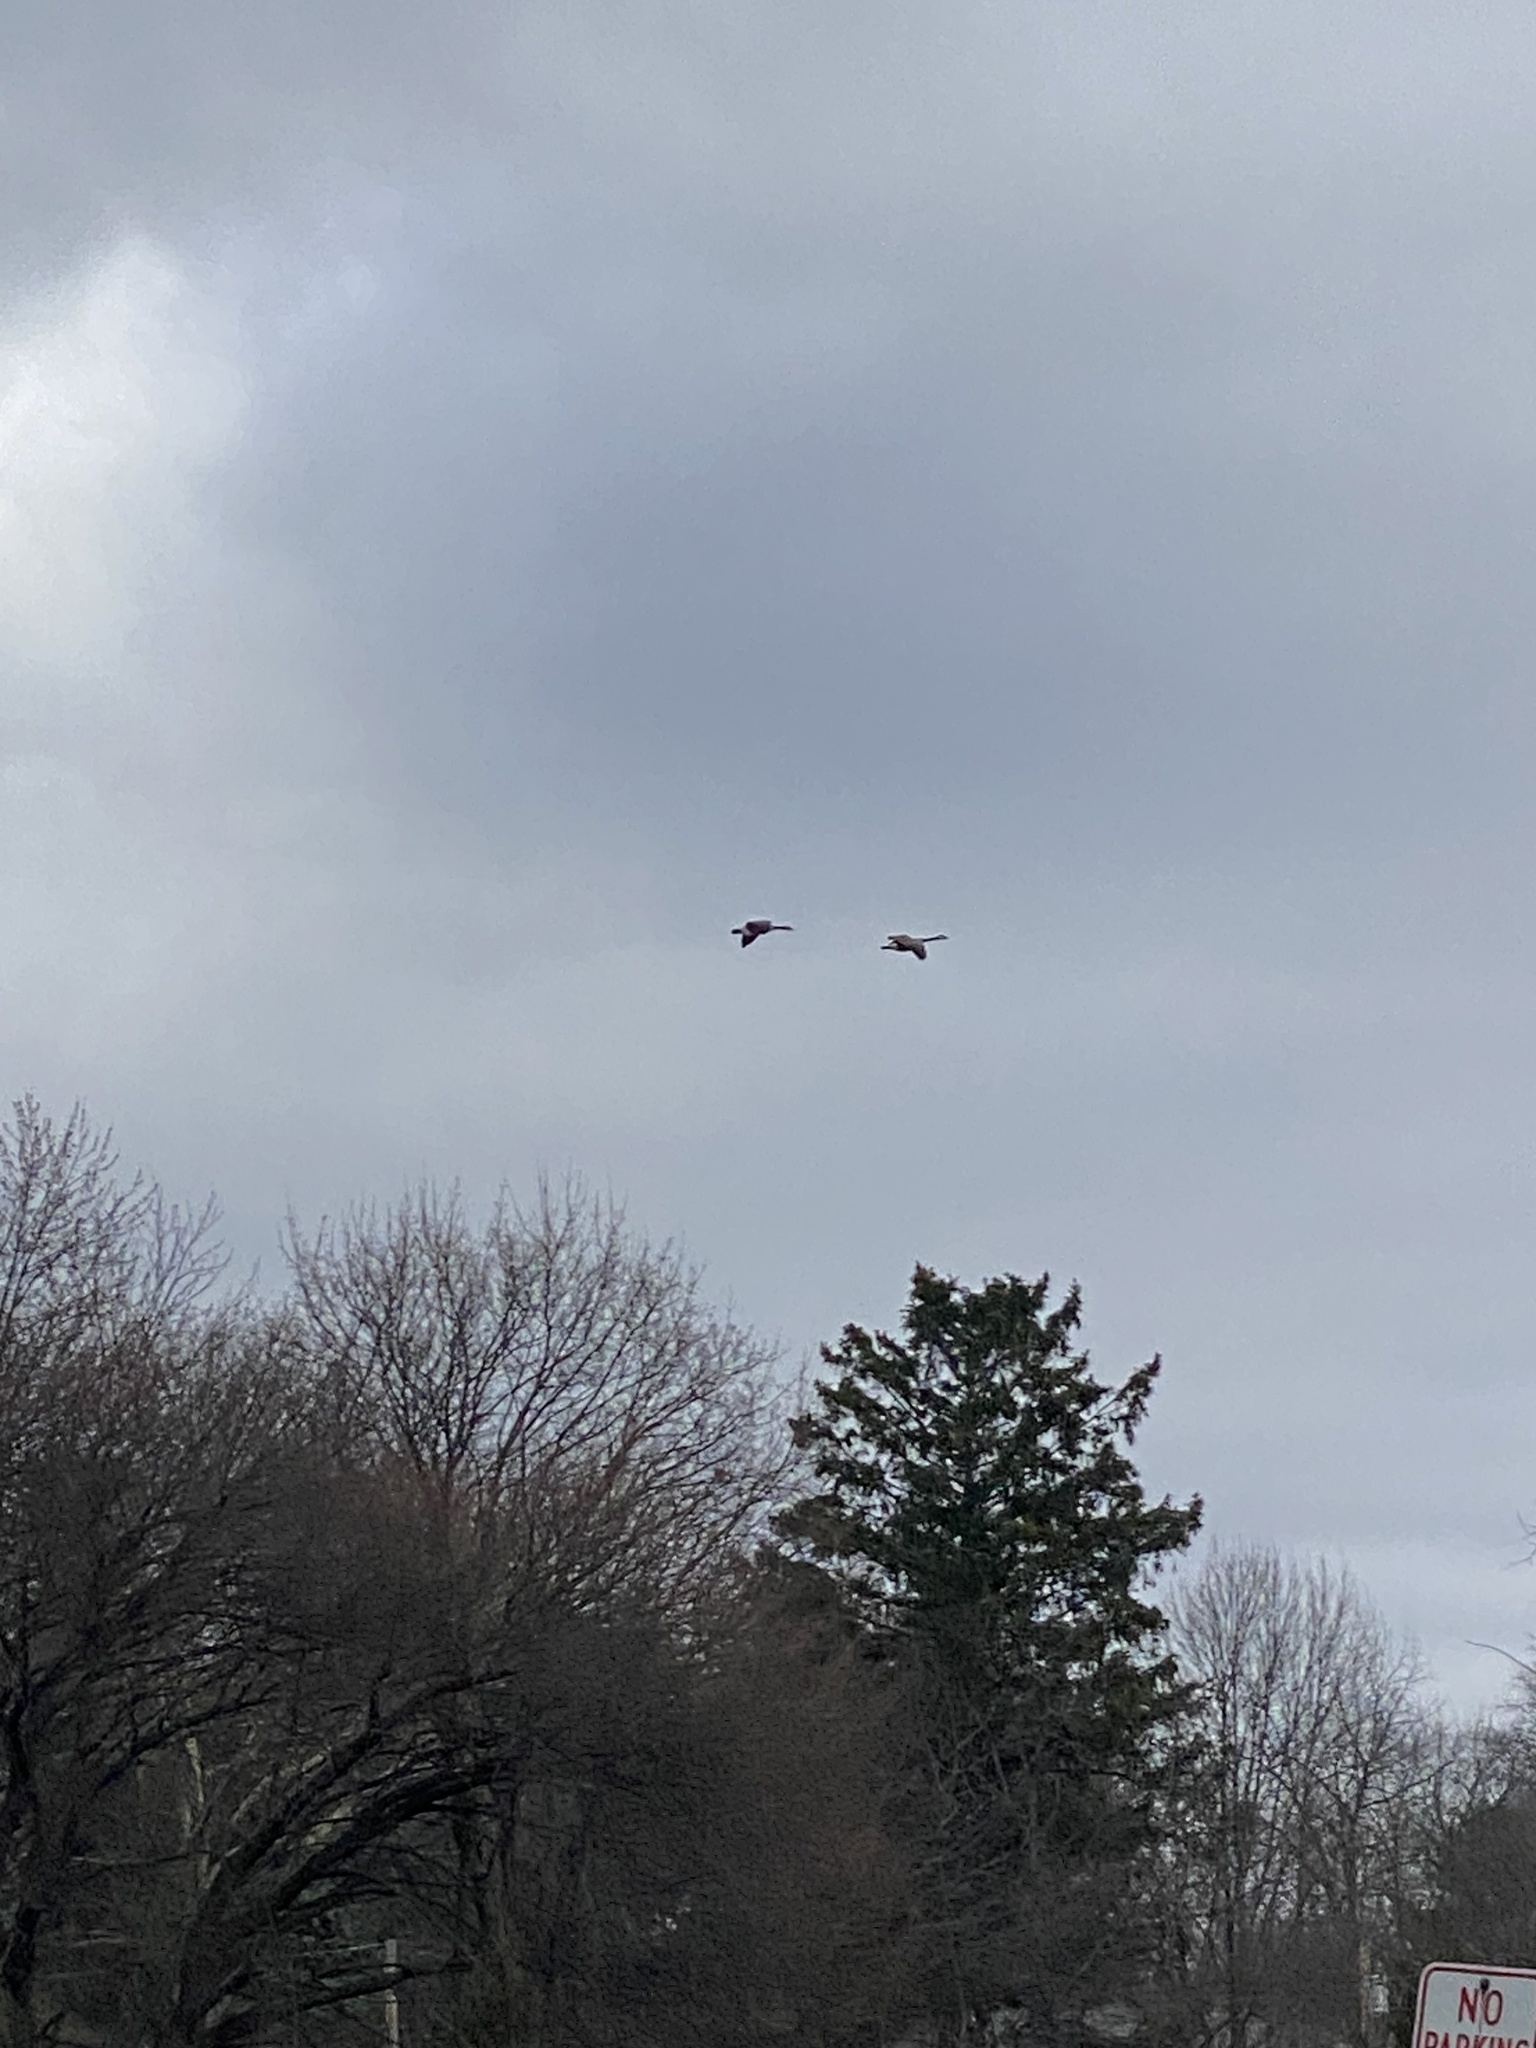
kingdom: Animalia
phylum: Chordata
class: Aves
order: Anseriformes
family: Anatidae
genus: Branta
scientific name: Branta canadensis
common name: Canada goose
